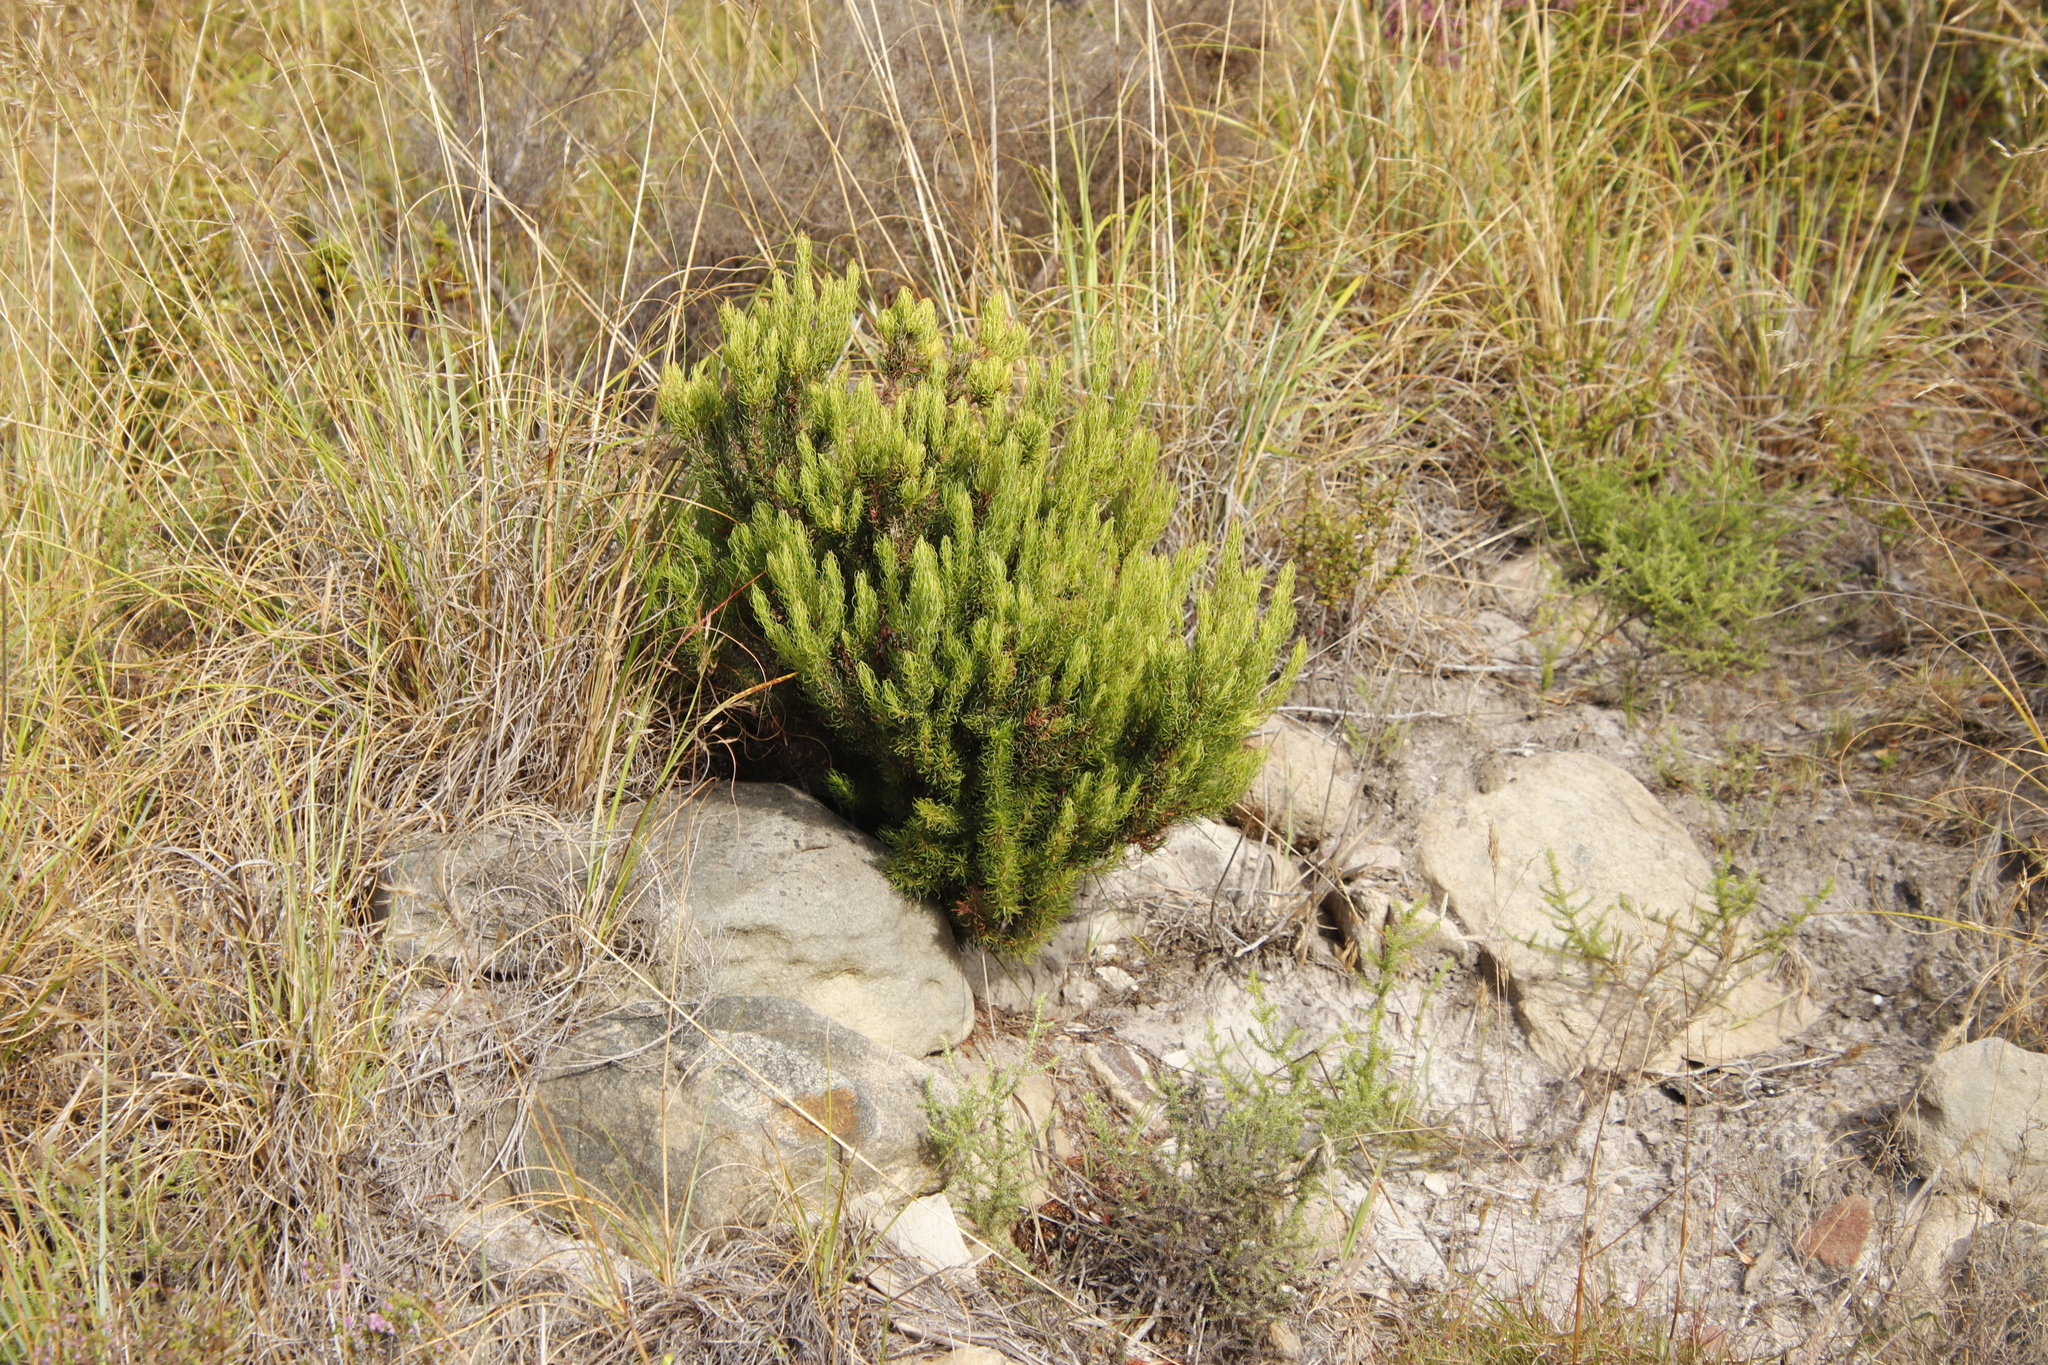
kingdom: Plantae
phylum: Tracheophyta
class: Magnoliopsida
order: Ericales
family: Ericaceae
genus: Erica
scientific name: Erica plukenetii
